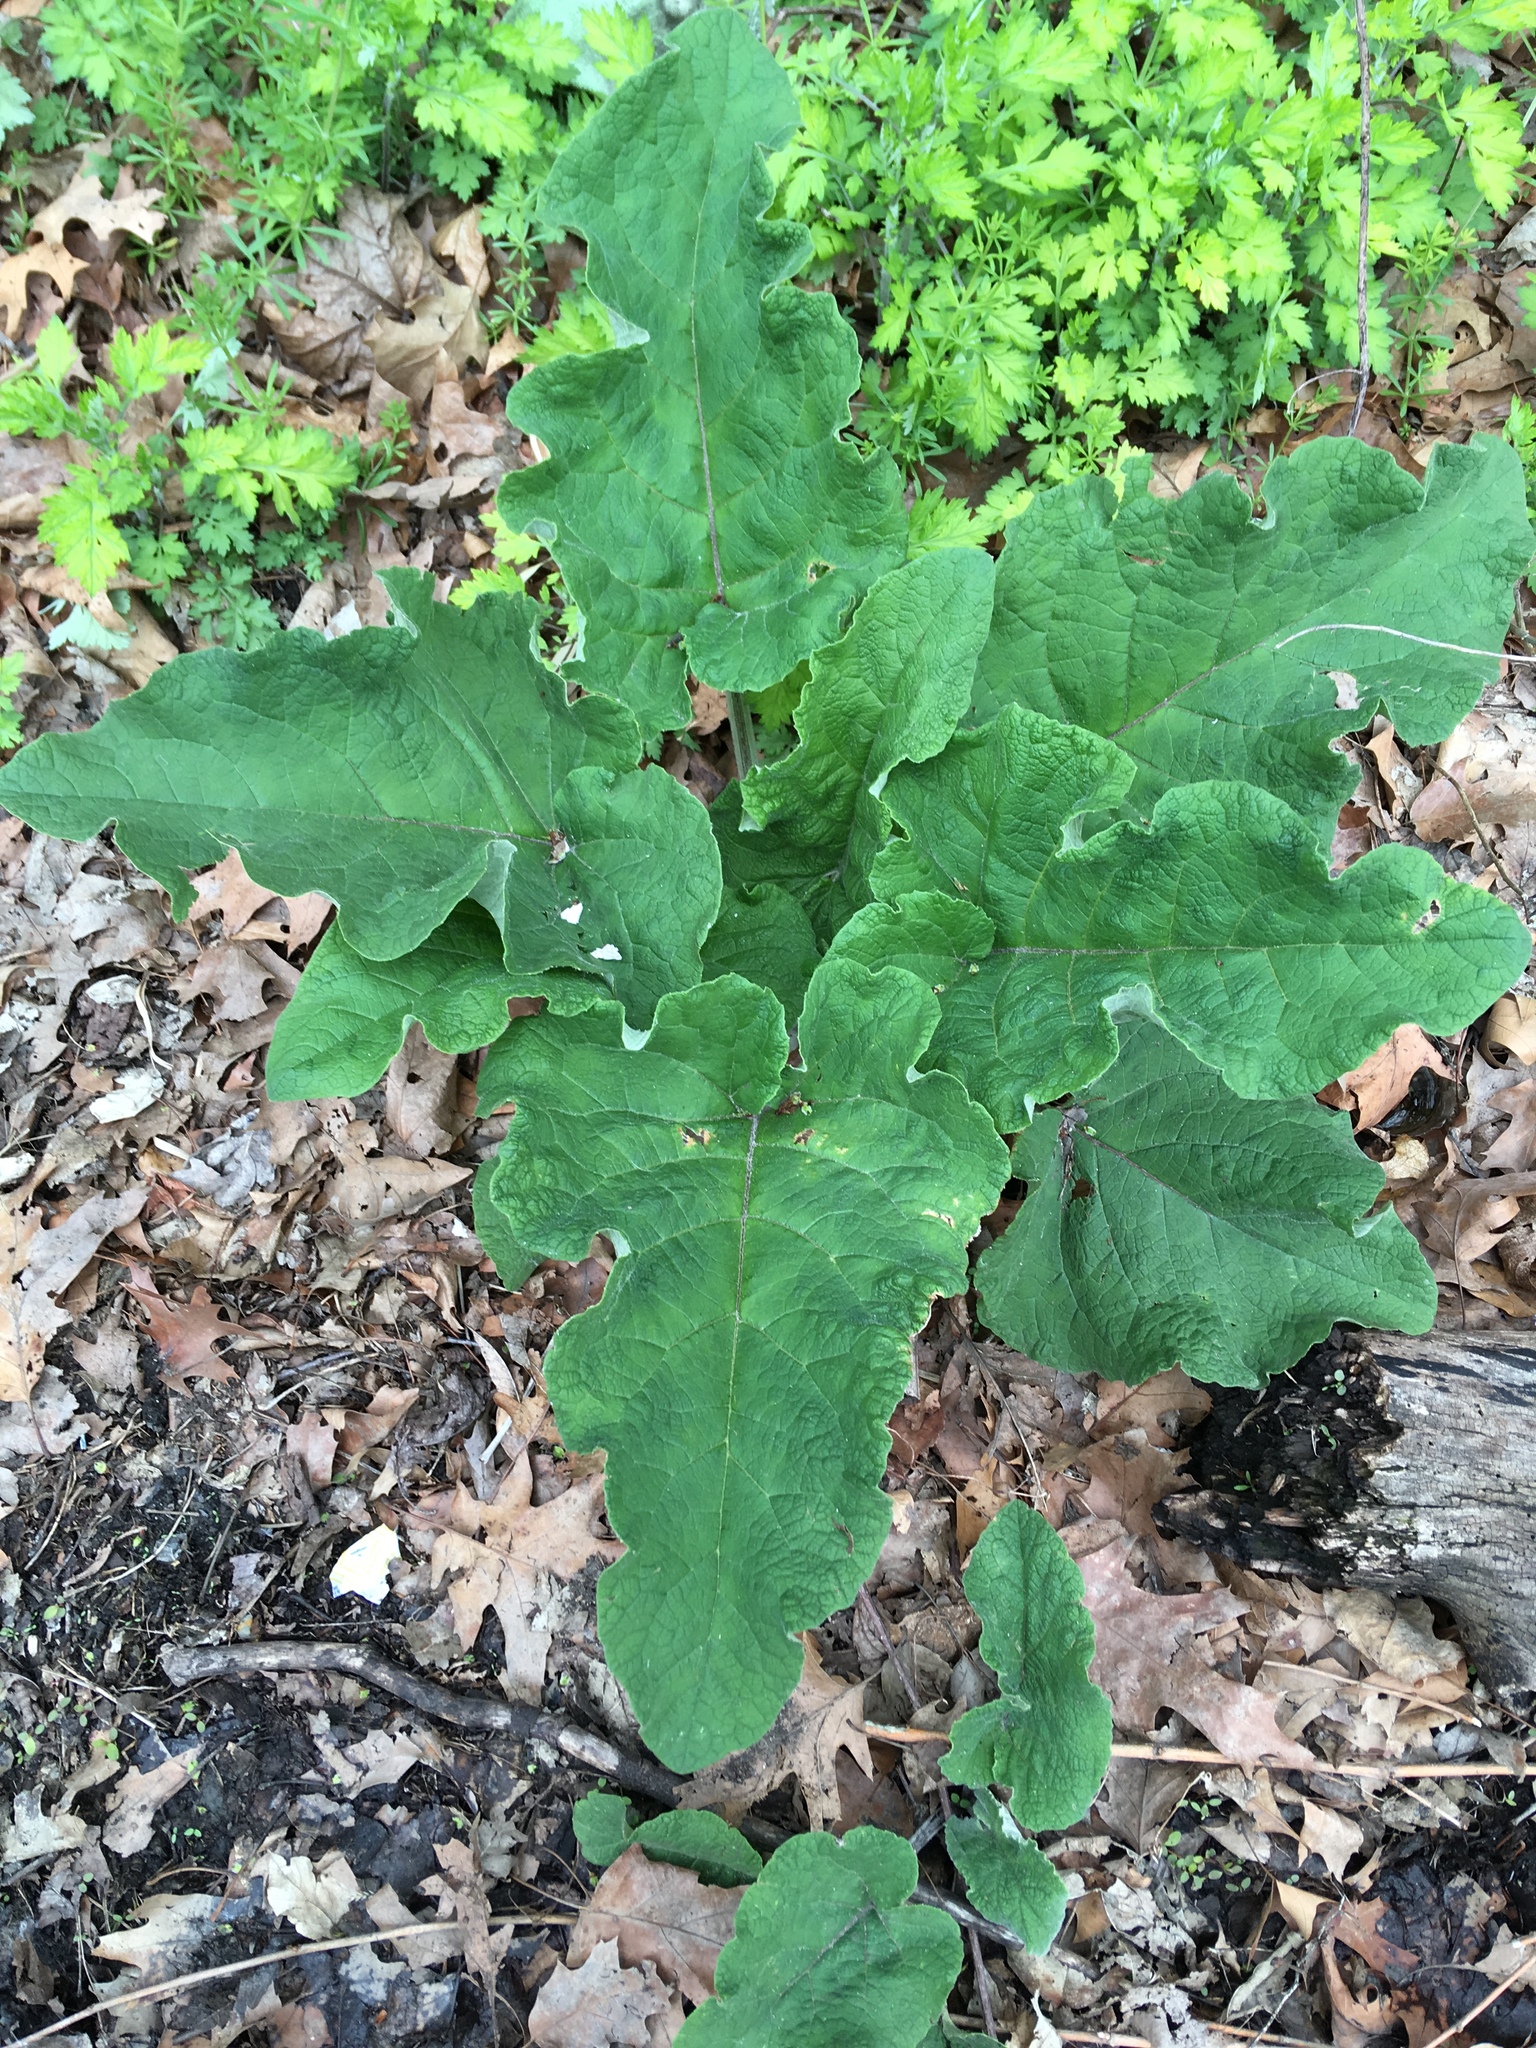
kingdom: Plantae
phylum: Tracheophyta
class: Magnoliopsida
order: Asterales
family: Asteraceae
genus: Arctium
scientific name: Arctium
